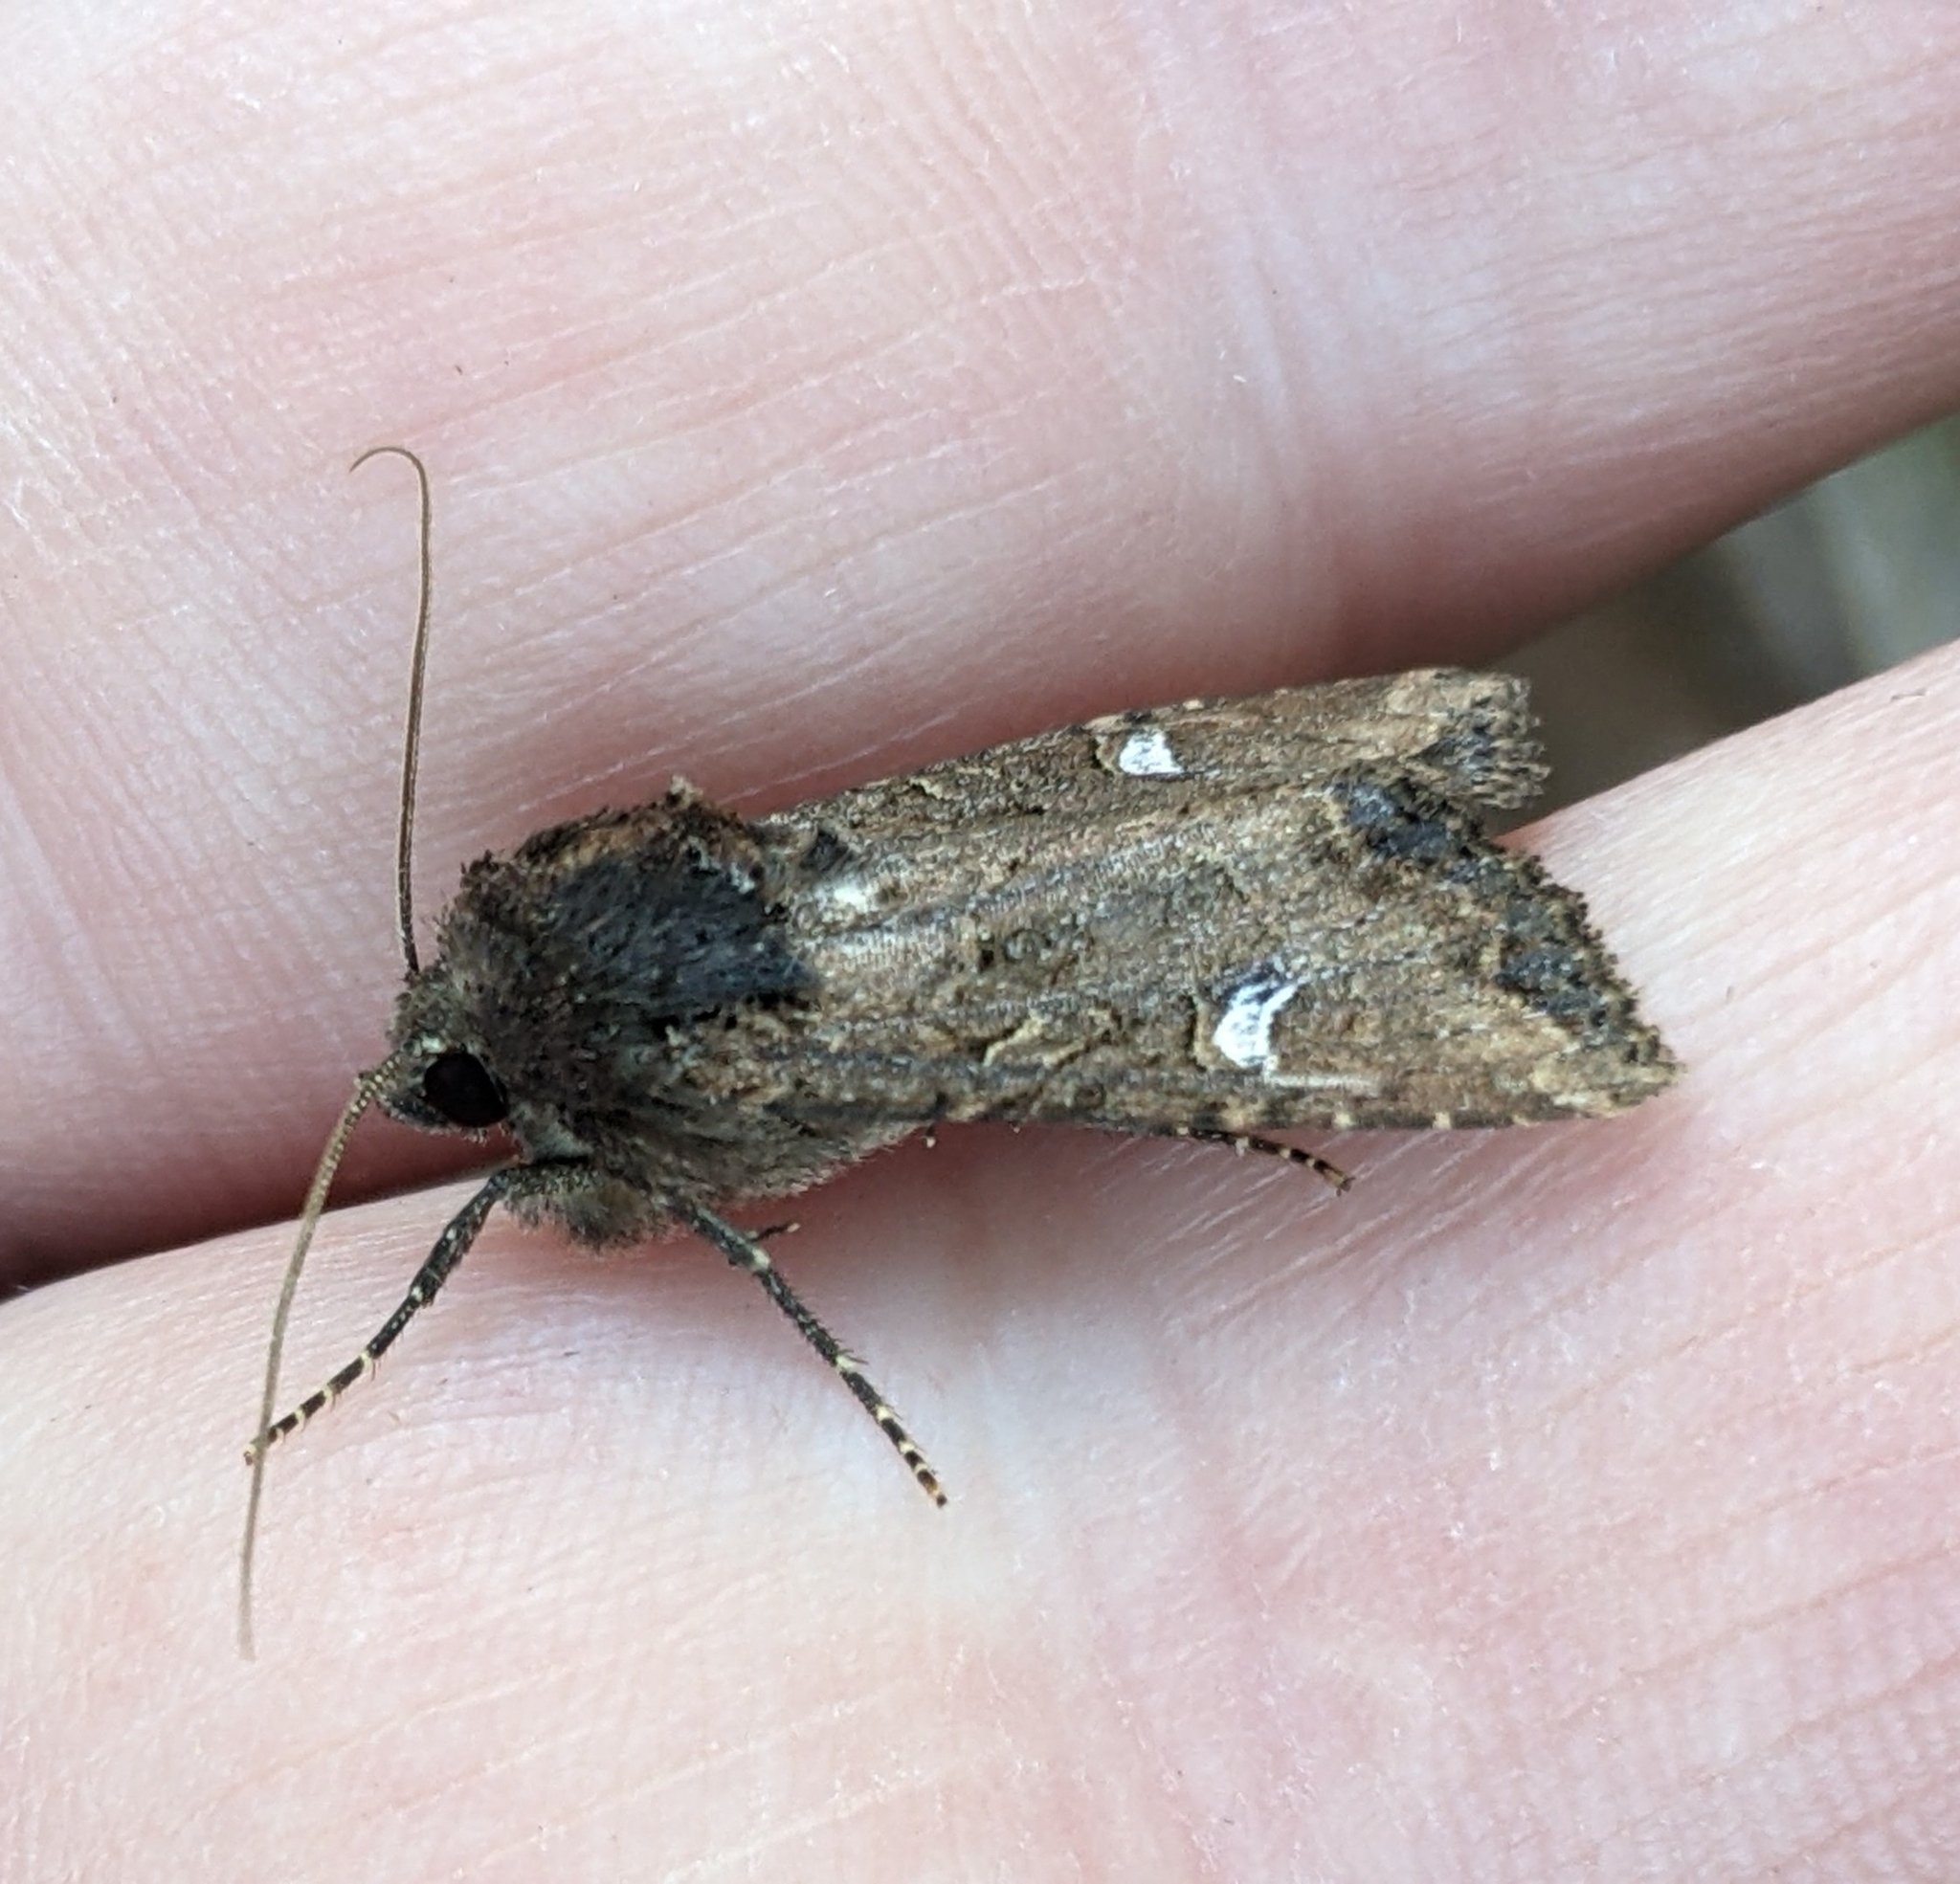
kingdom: Animalia
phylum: Arthropoda
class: Insecta
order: Lepidoptera
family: Noctuidae
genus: Helotropha
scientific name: Helotropha reniformis
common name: Kidney-spotted rustic moth
